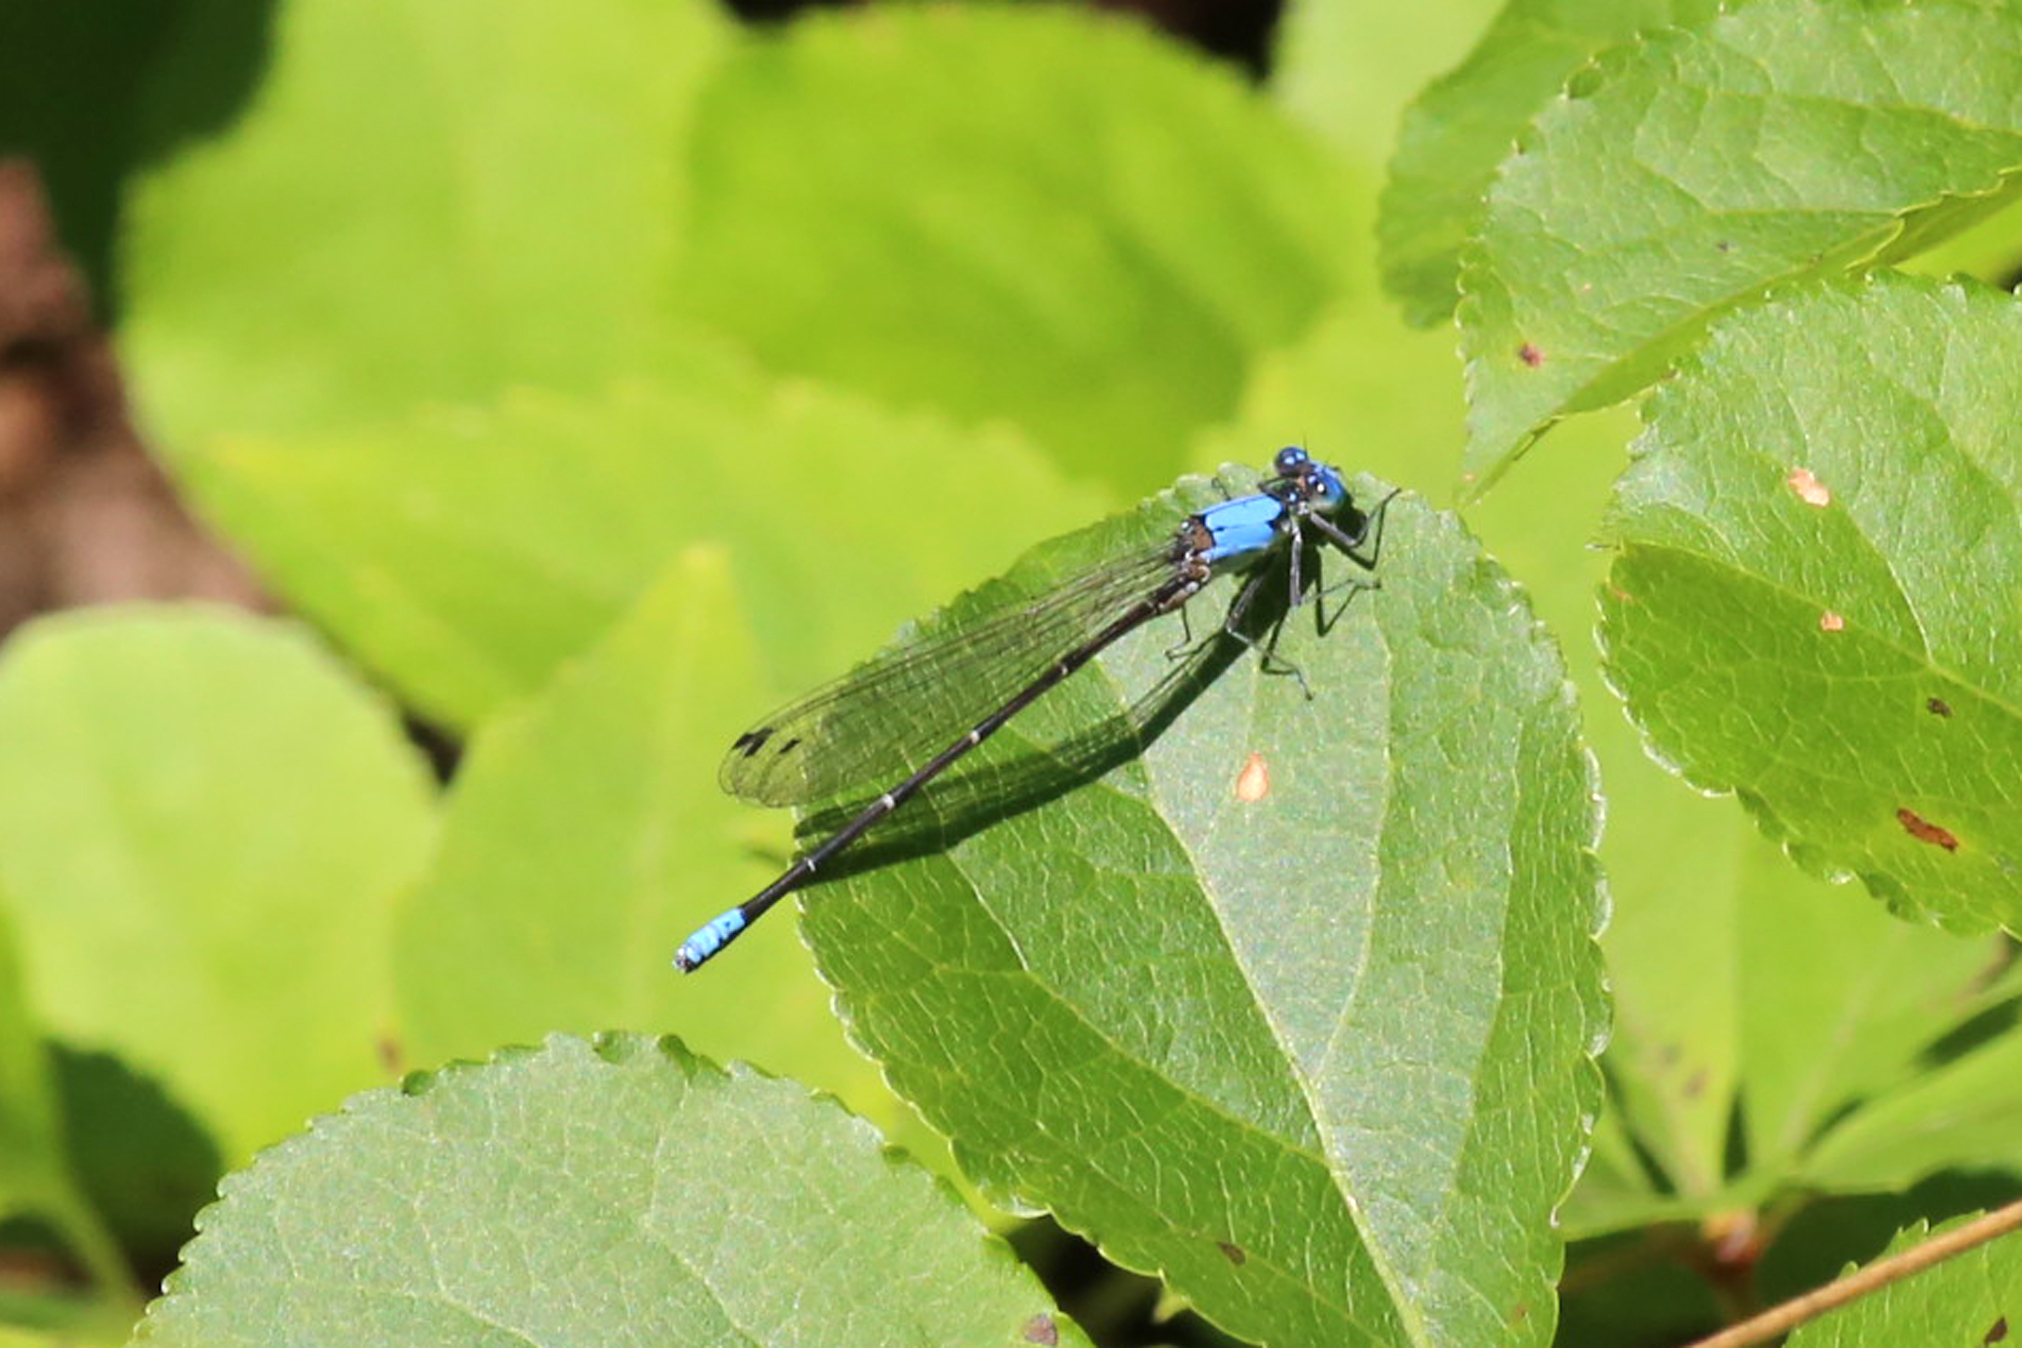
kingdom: Animalia
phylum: Arthropoda
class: Insecta
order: Odonata
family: Coenagrionidae
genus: Argia
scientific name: Argia apicalis
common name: Blue-fronted dancer
